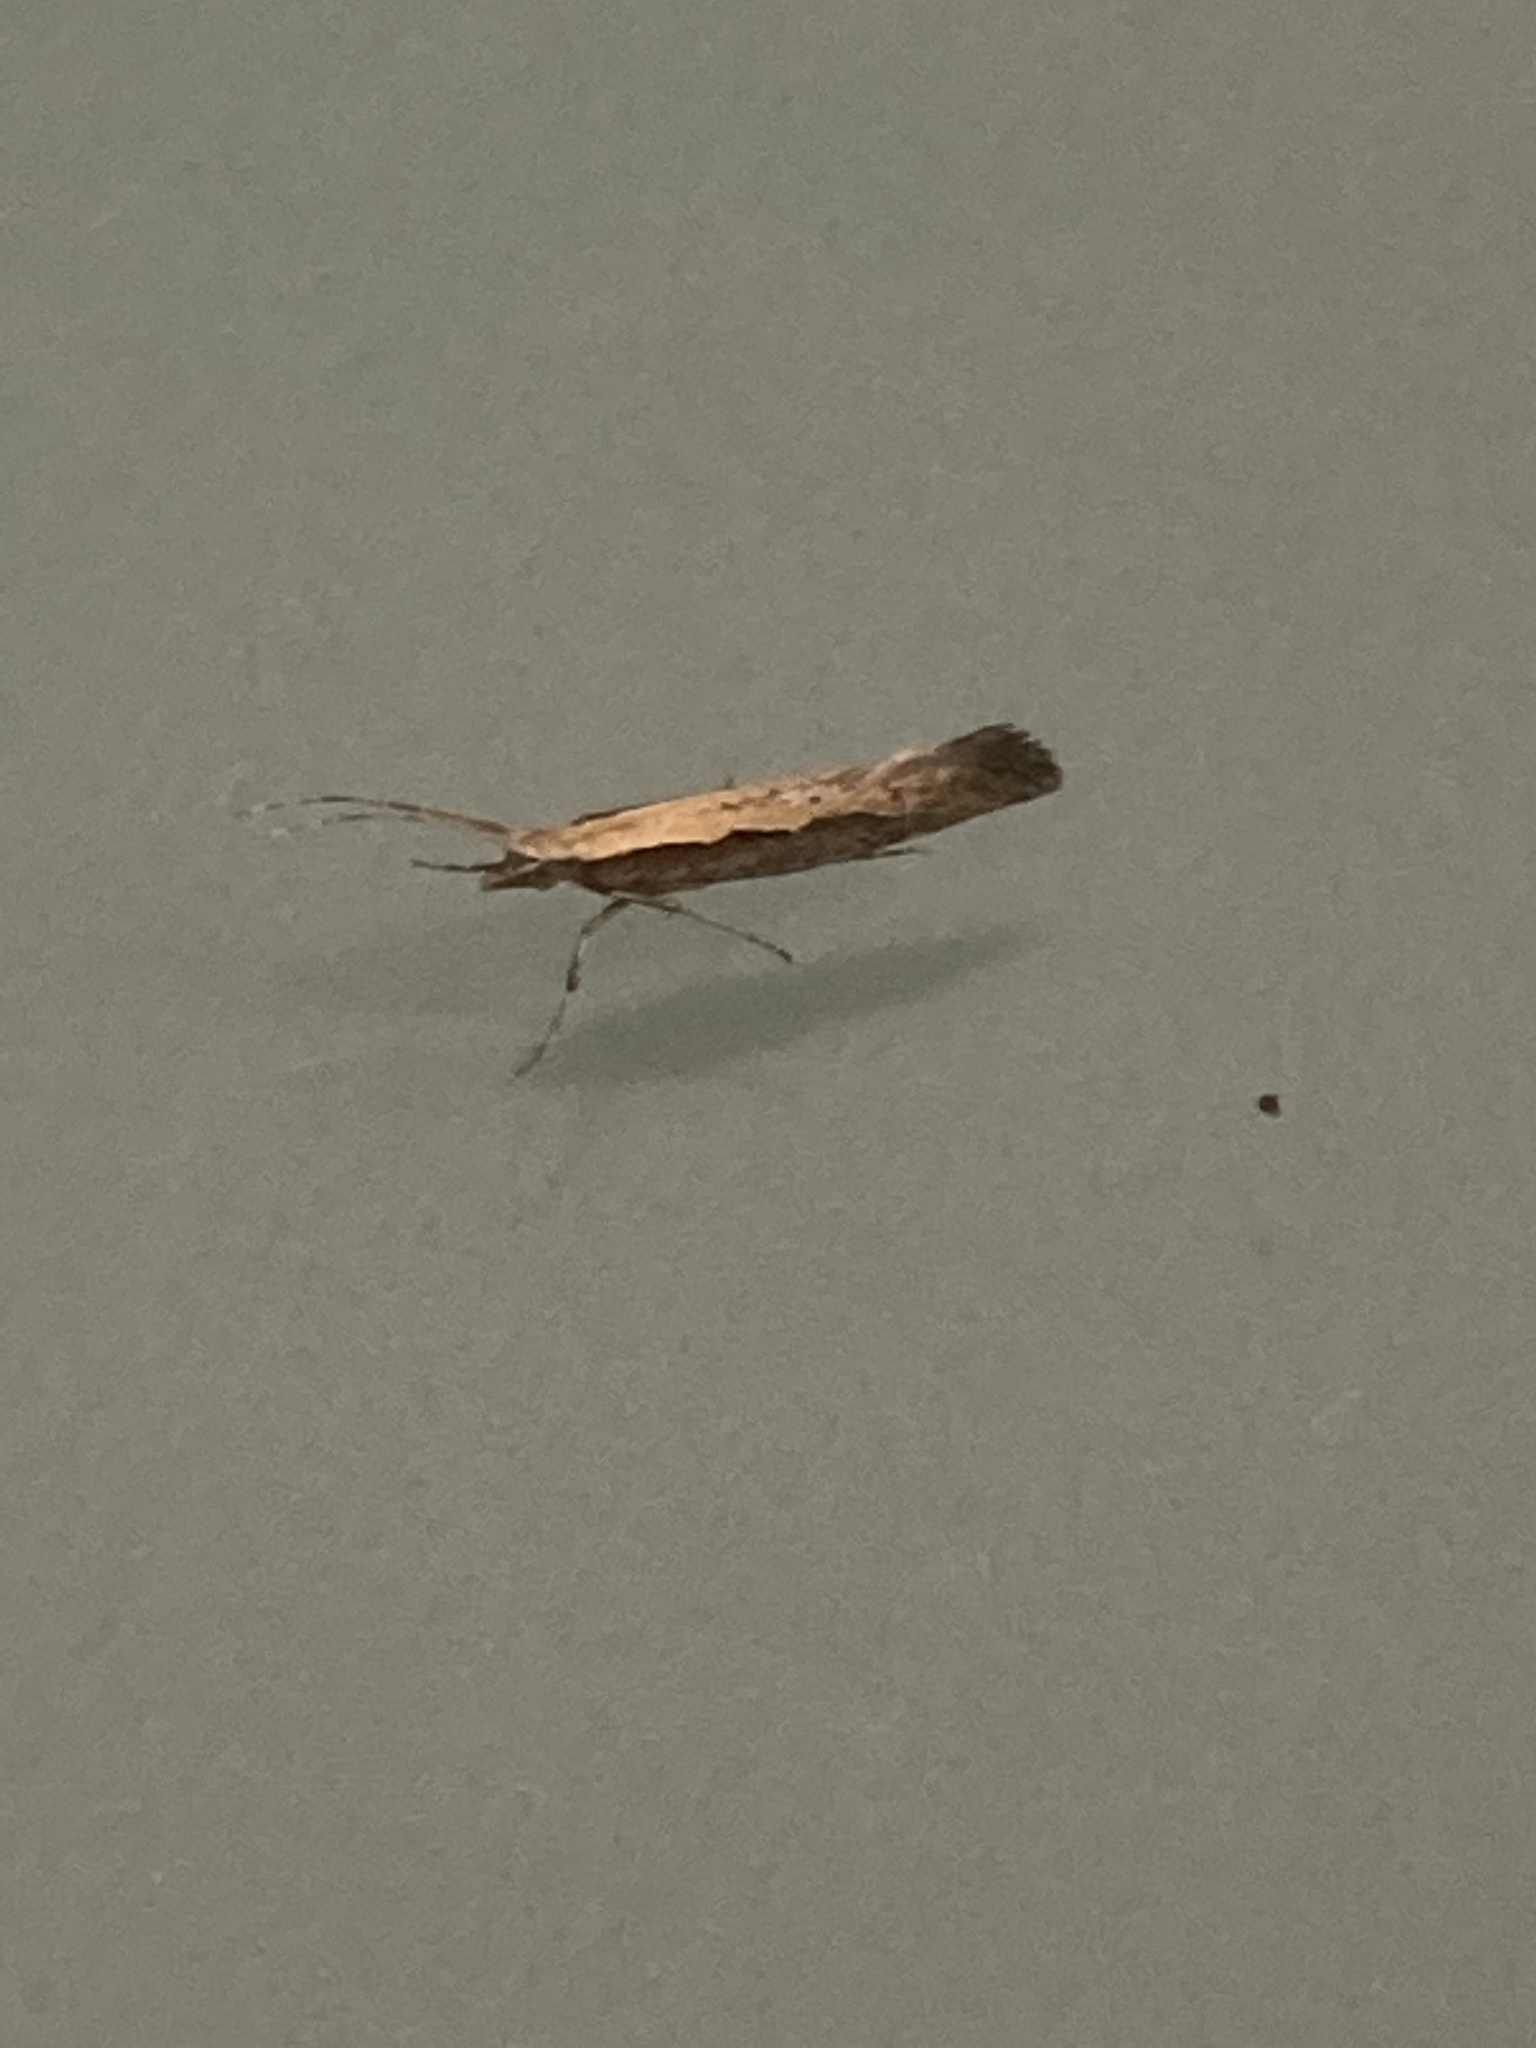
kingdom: Animalia
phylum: Arthropoda
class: Insecta
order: Lepidoptera
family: Plutellidae
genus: Plutella
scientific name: Plutella xylostella
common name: Diamond-back moth
